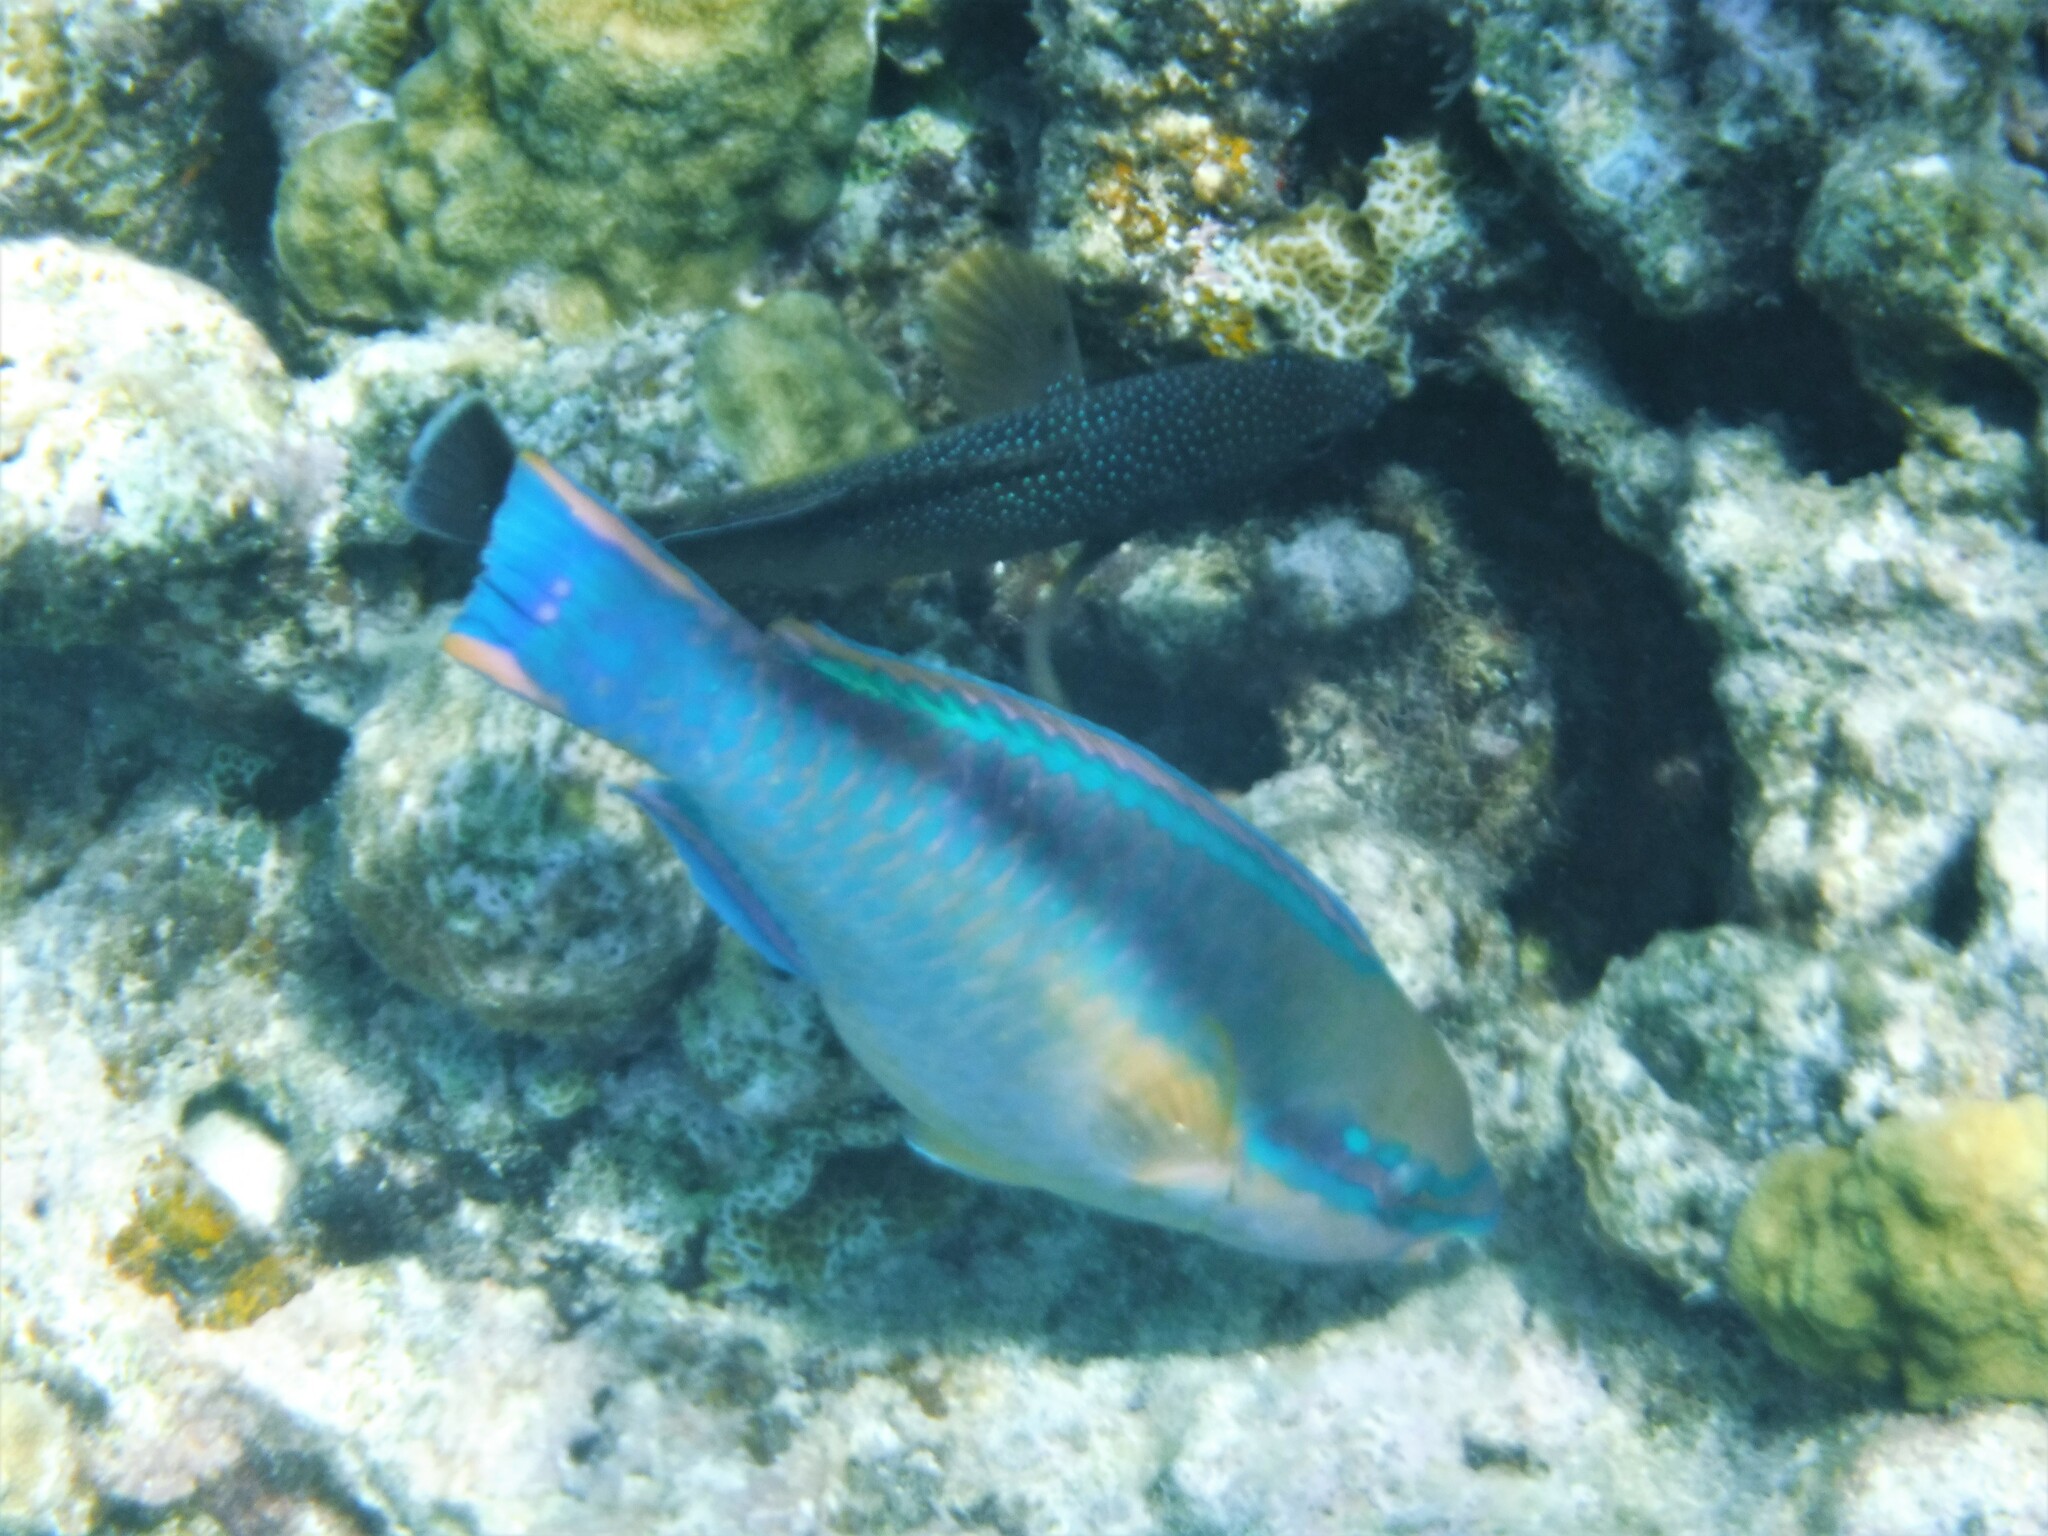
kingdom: Animalia
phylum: Chordata
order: Perciformes
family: Scaridae
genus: Scarus
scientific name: Scarus taeniopterus
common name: Princess parrotfish
